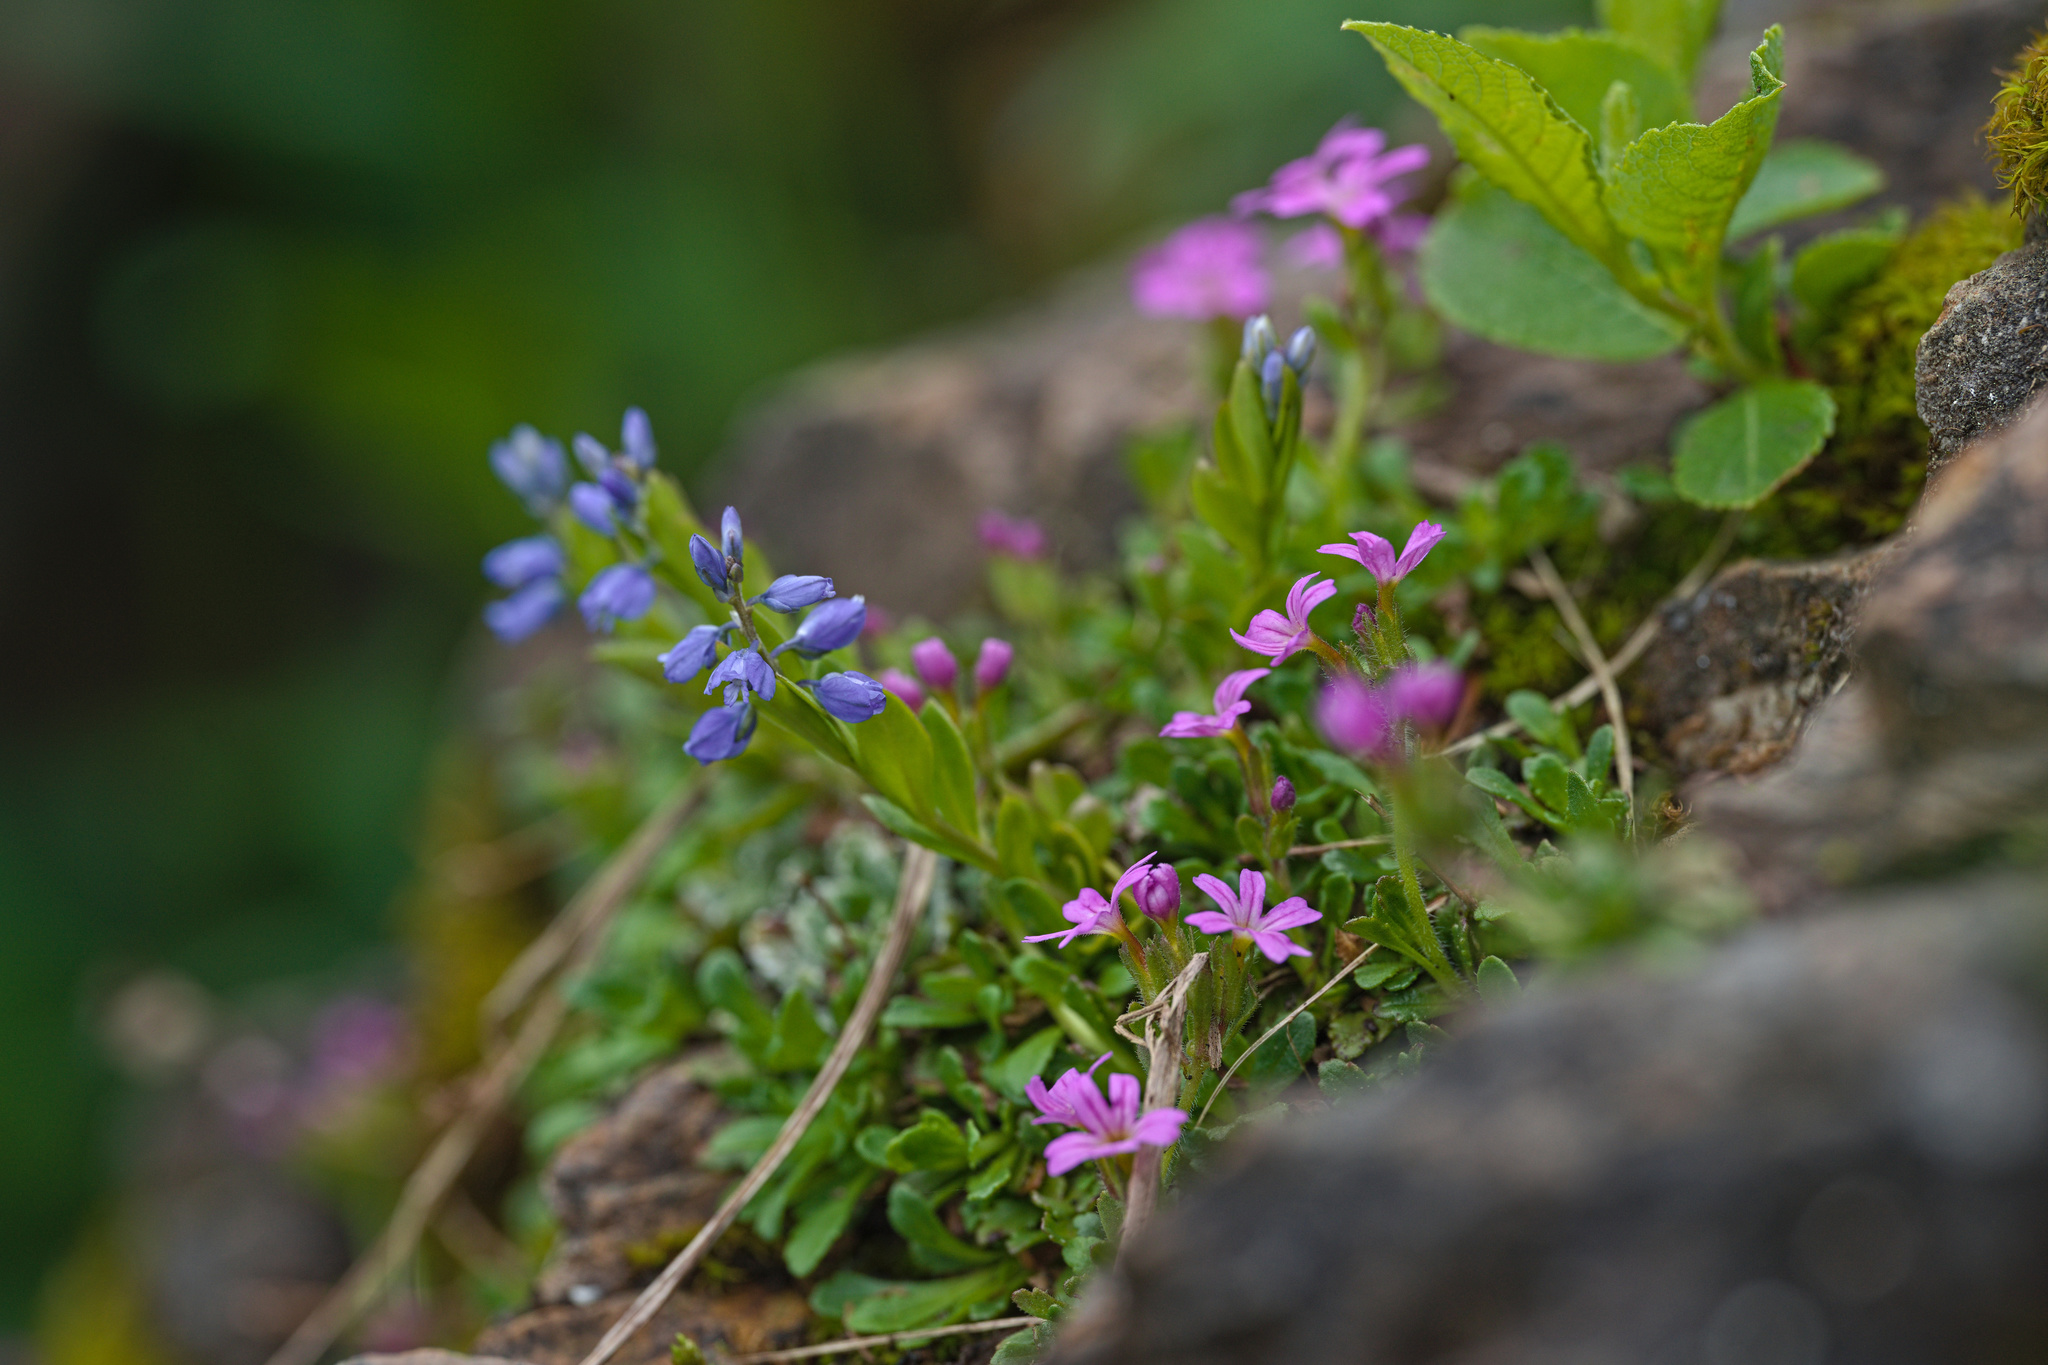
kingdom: Plantae
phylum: Tracheophyta
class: Magnoliopsida
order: Lamiales
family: Plantaginaceae
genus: Erinus
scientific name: Erinus alpinus
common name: Fairy foxglove
